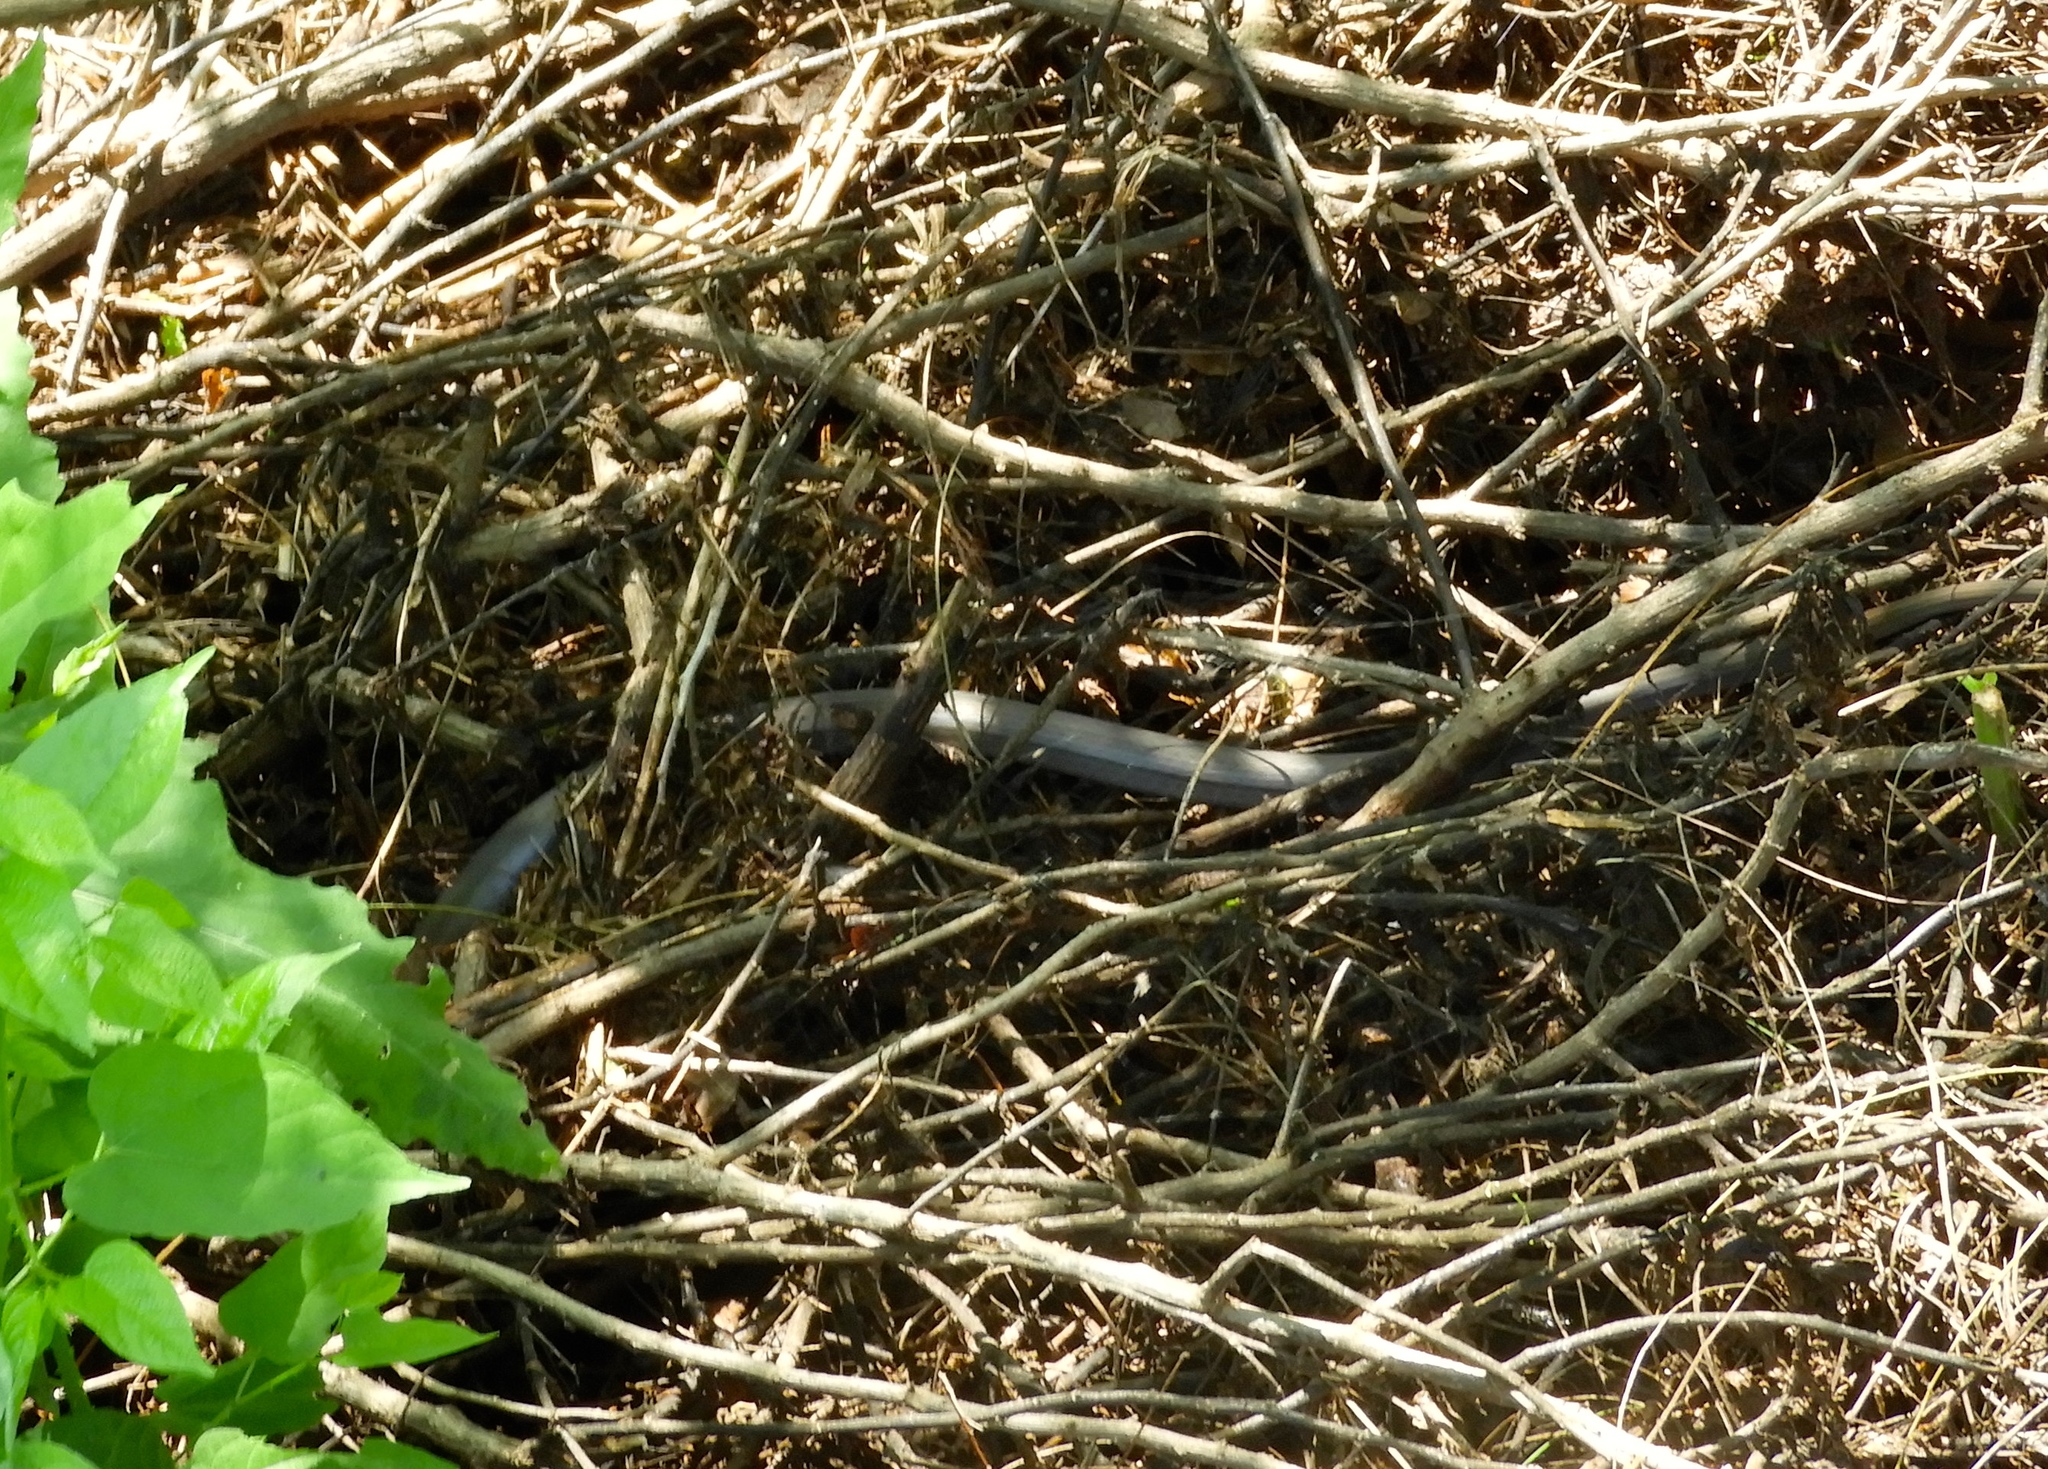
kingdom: Animalia
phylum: Chordata
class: Squamata
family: Colubridae
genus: Masticophis
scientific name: Masticophis mentovarius
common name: Neotropical whip snake
